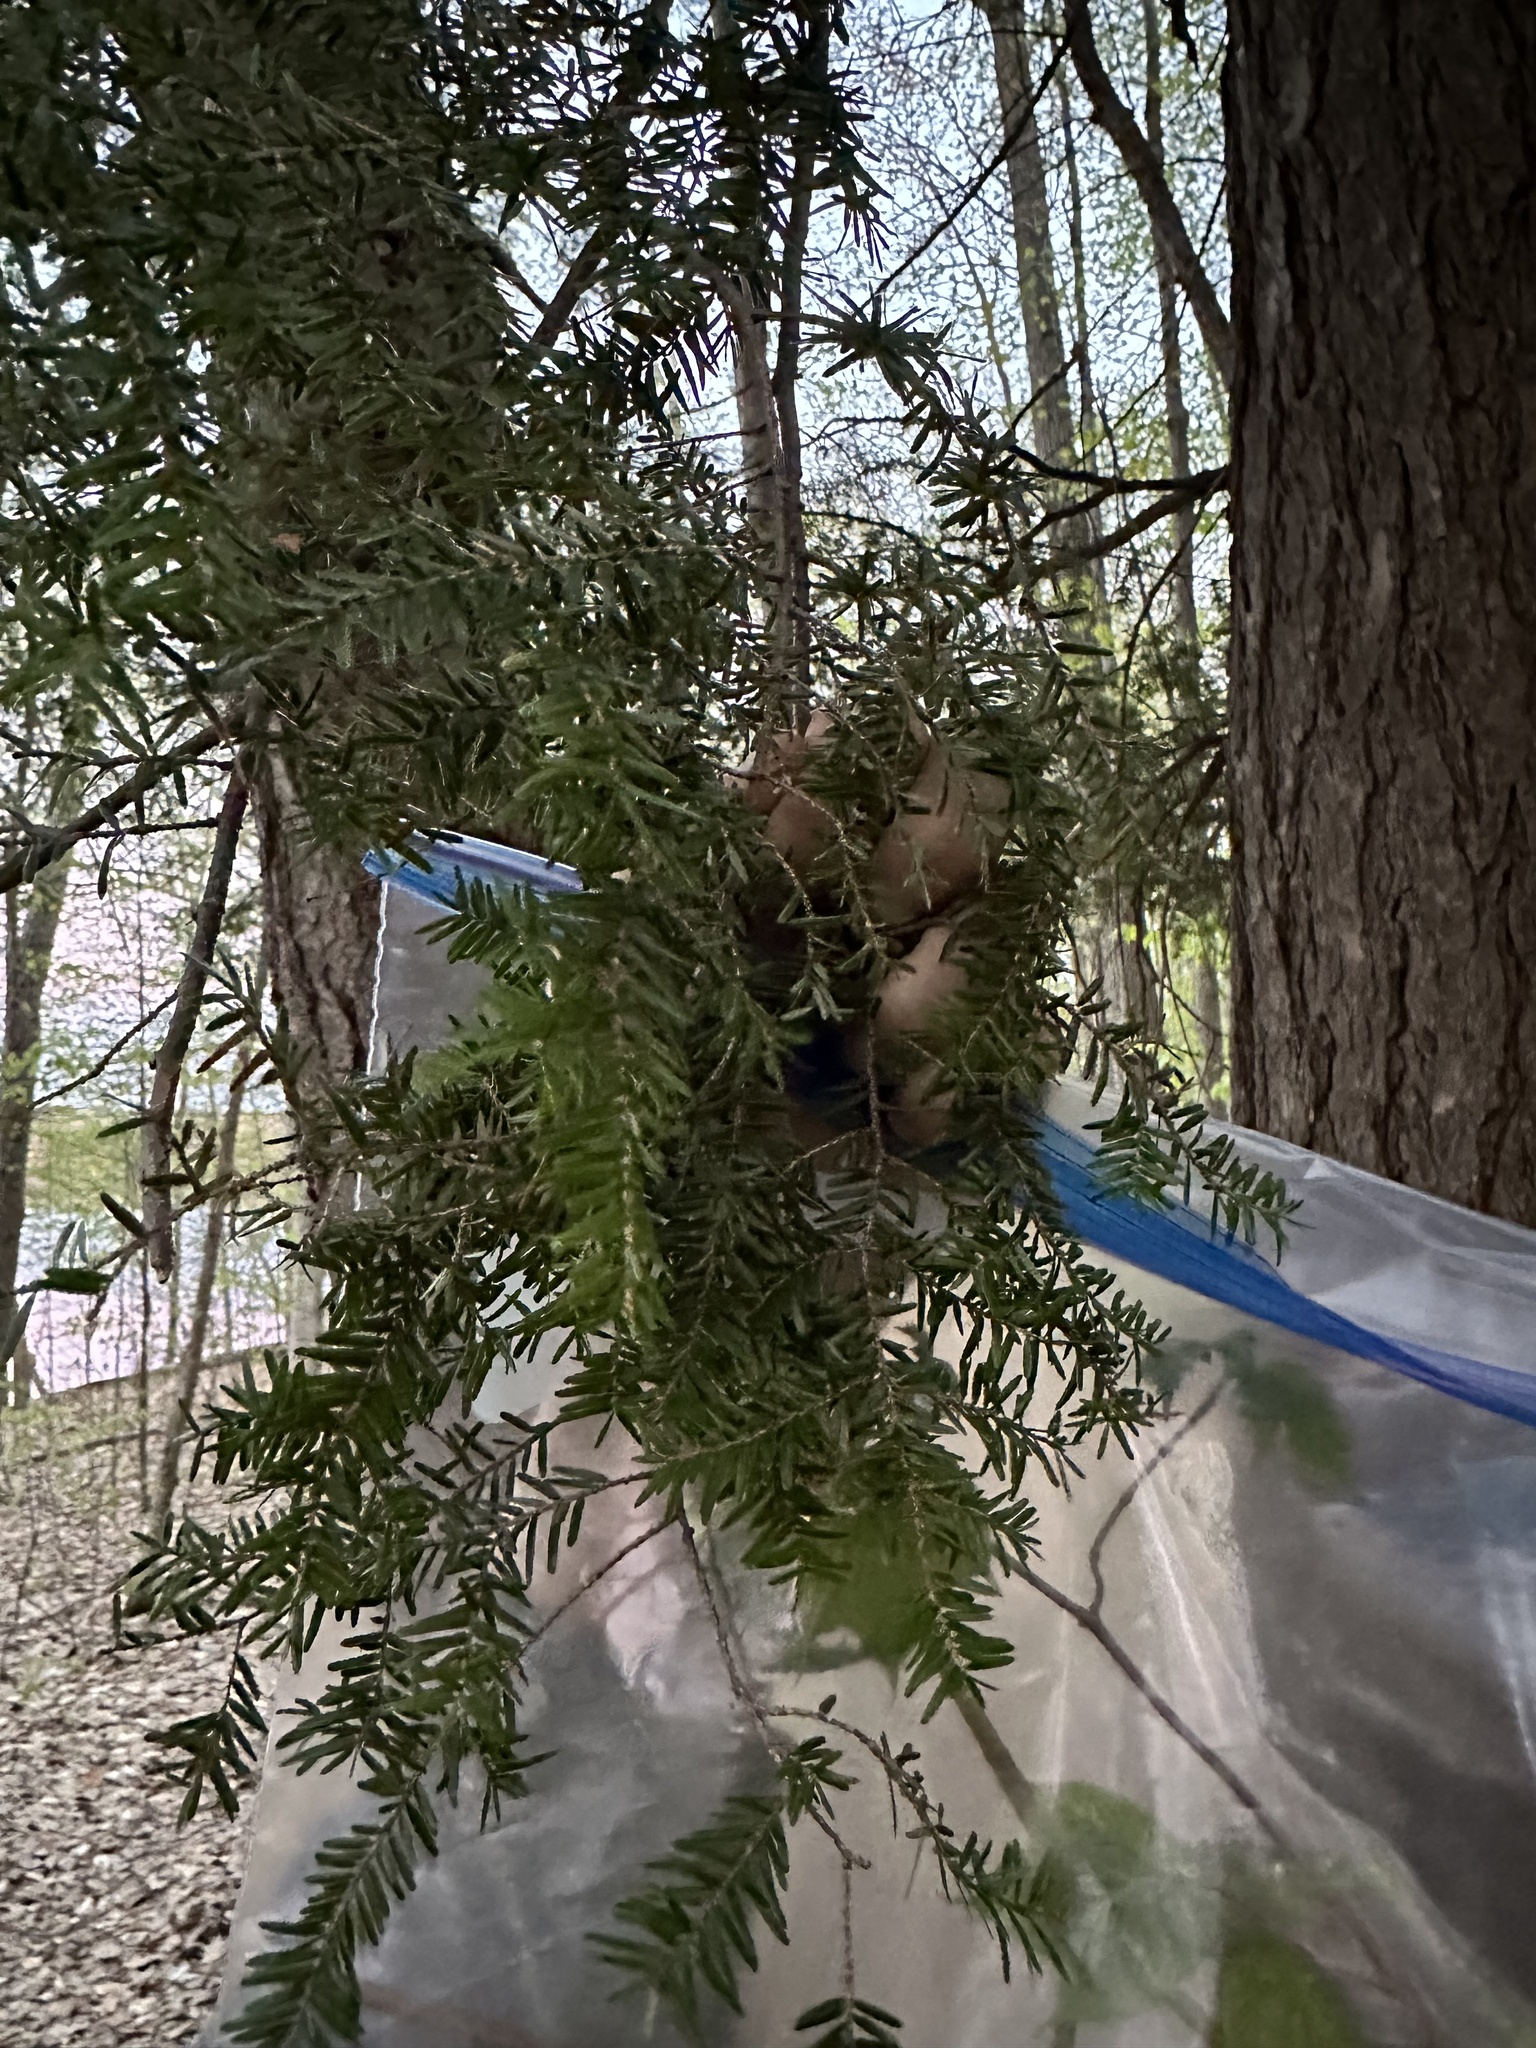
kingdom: Plantae
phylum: Tracheophyta
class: Pinopsida
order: Pinales
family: Pinaceae
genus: Tsuga
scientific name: Tsuga canadensis
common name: Eastern hemlock
